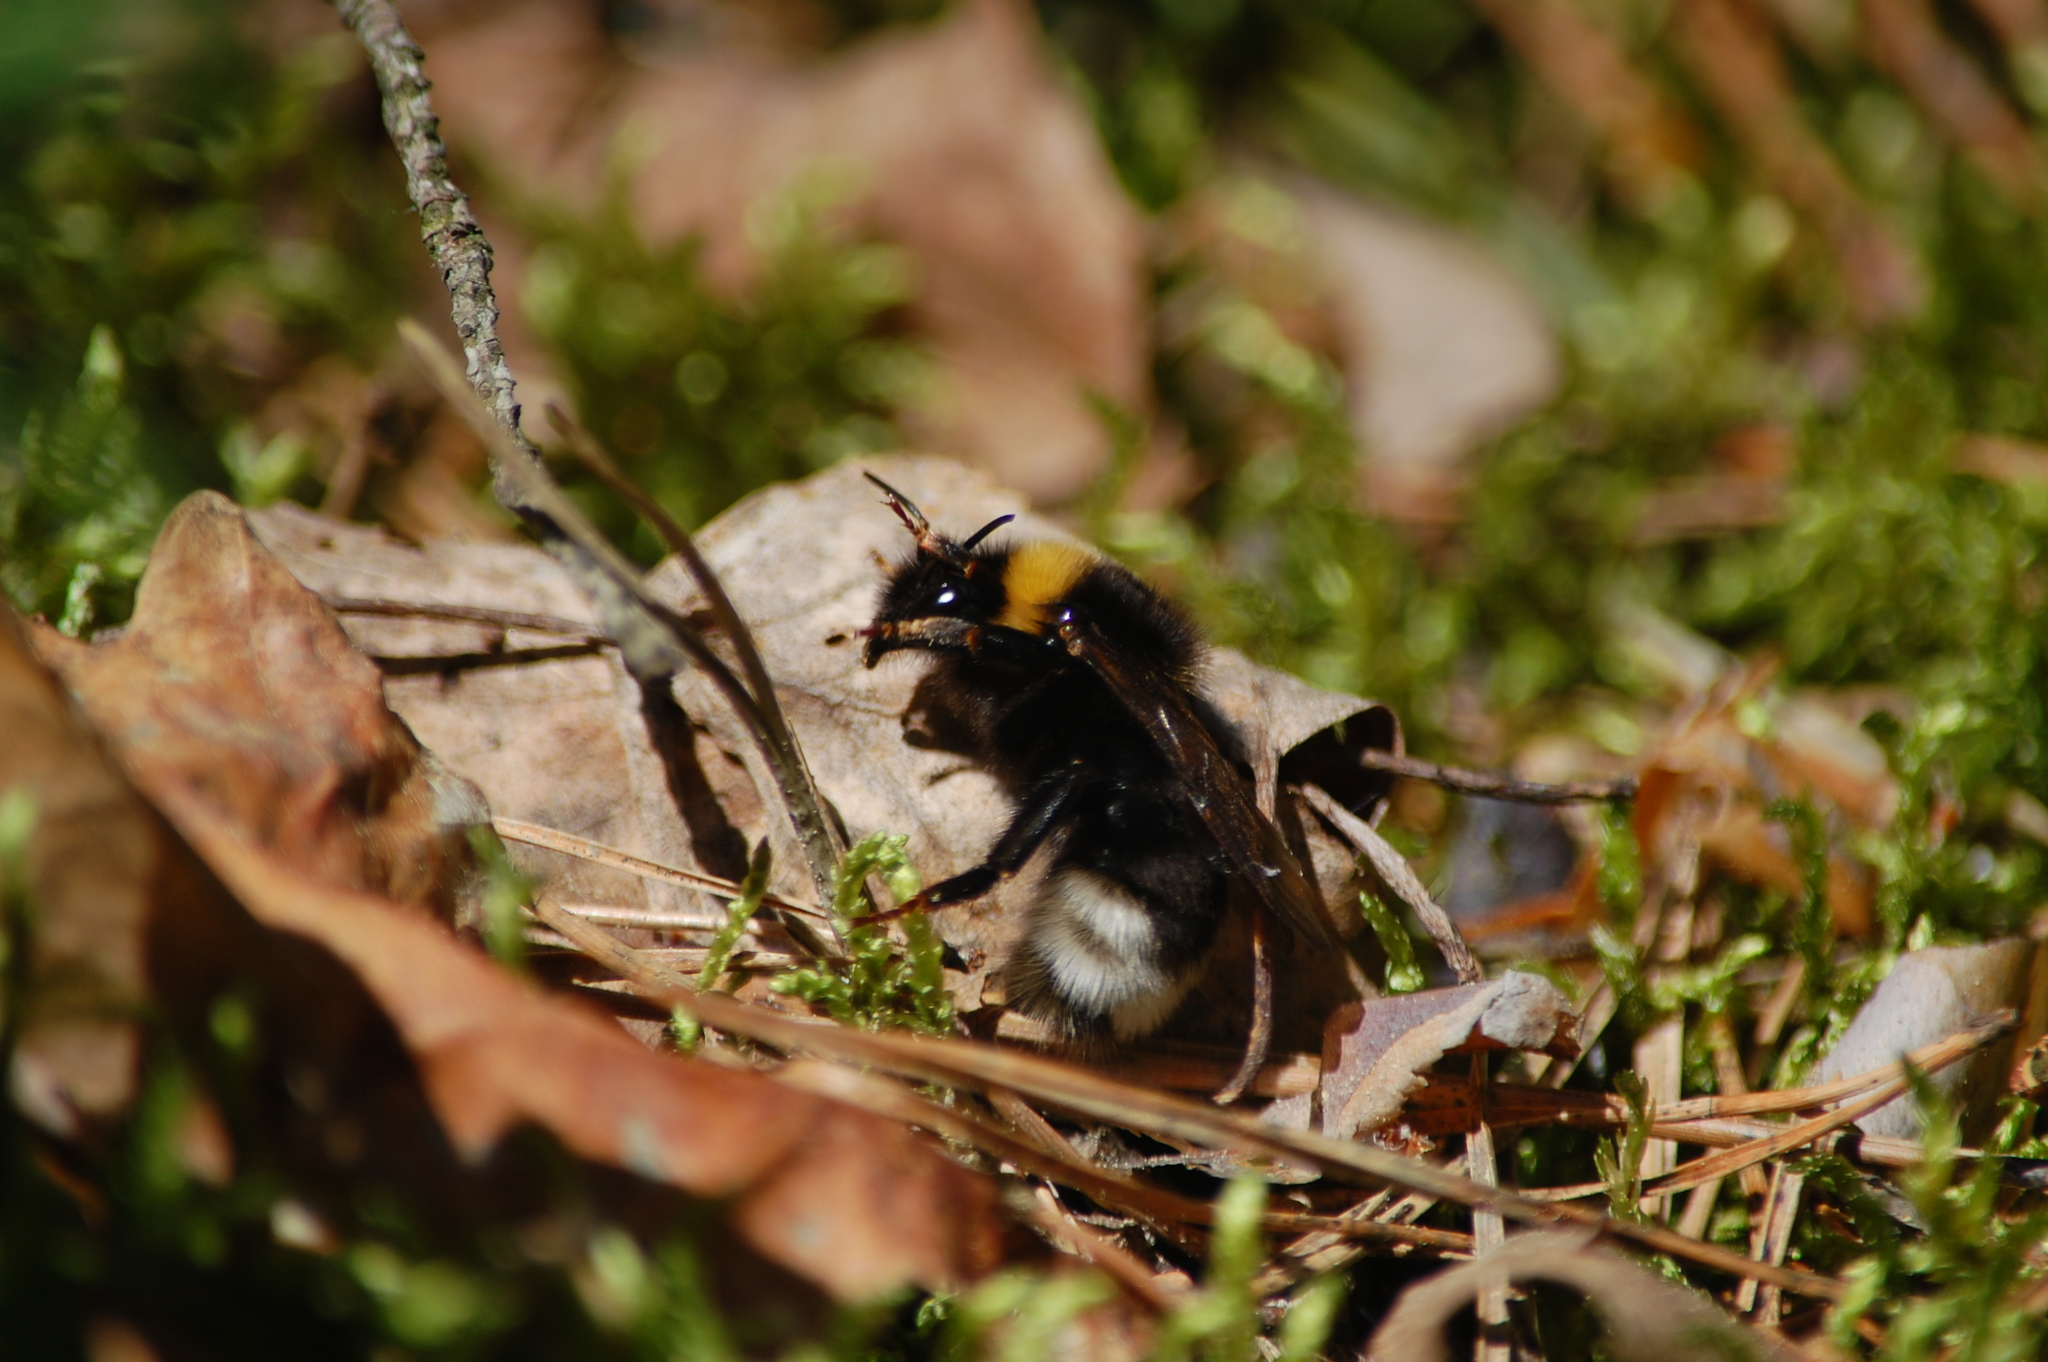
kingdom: Animalia
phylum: Arthropoda
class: Insecta
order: Hymenoptera
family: Apidae
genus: Bombus
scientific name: Bombus
